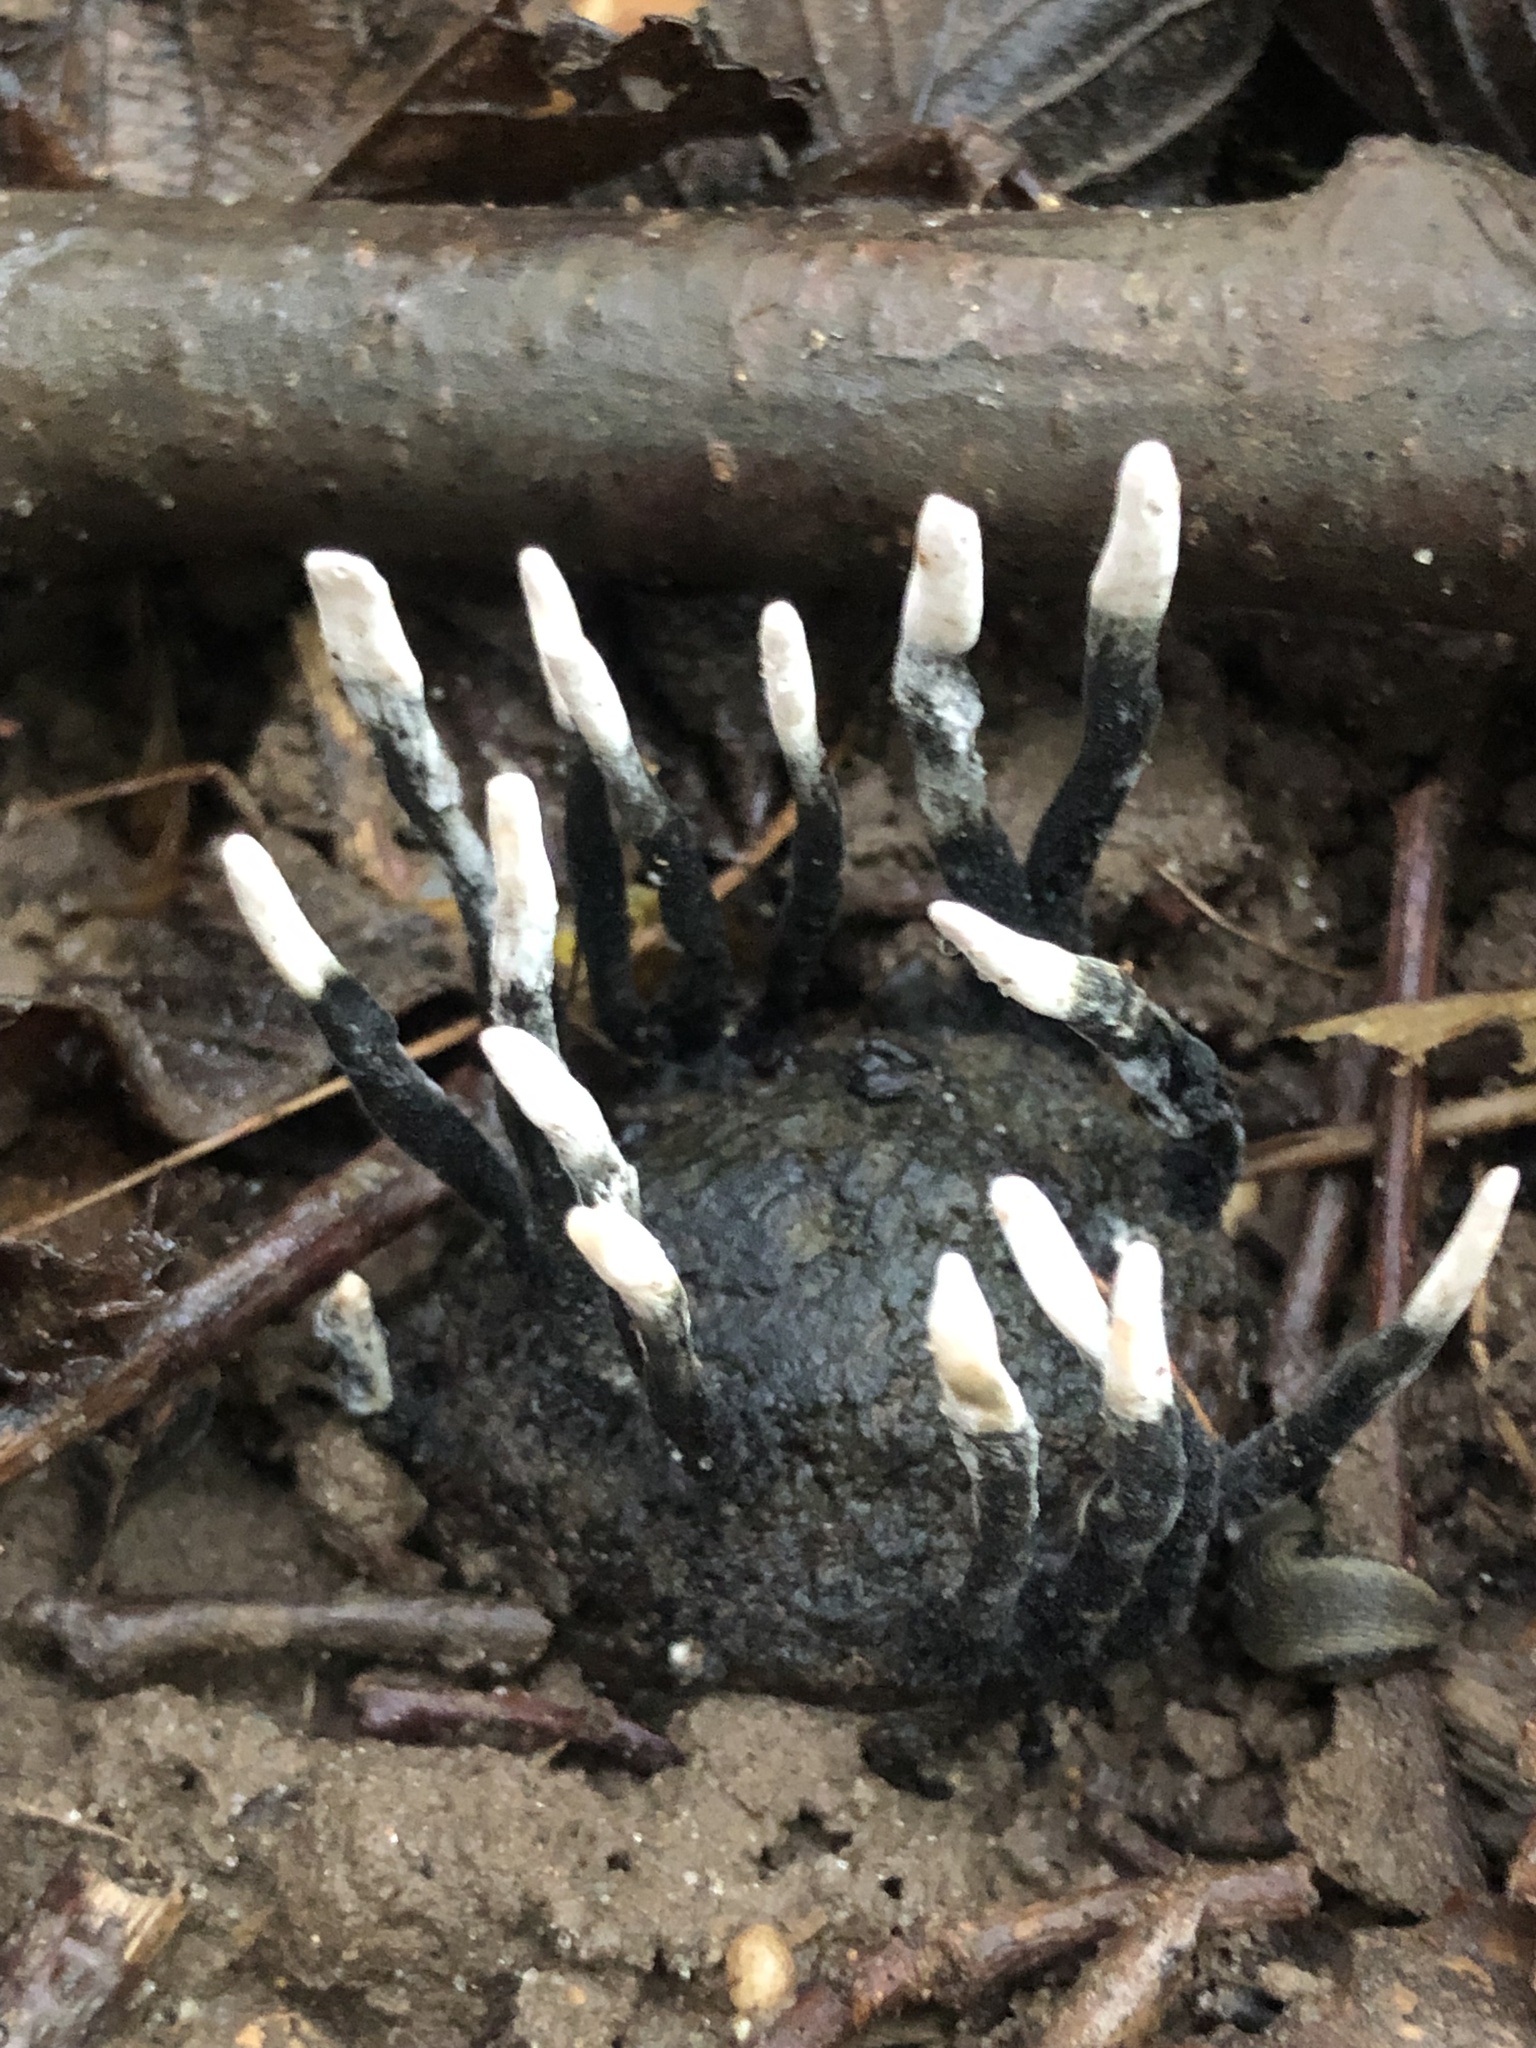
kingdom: Fungi
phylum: Ascomycota
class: Sordariomycetes
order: Xylariales
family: Xylariaceae
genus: Xylaria
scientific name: Xylaria hypoxylon
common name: Candle-snuff fungus
